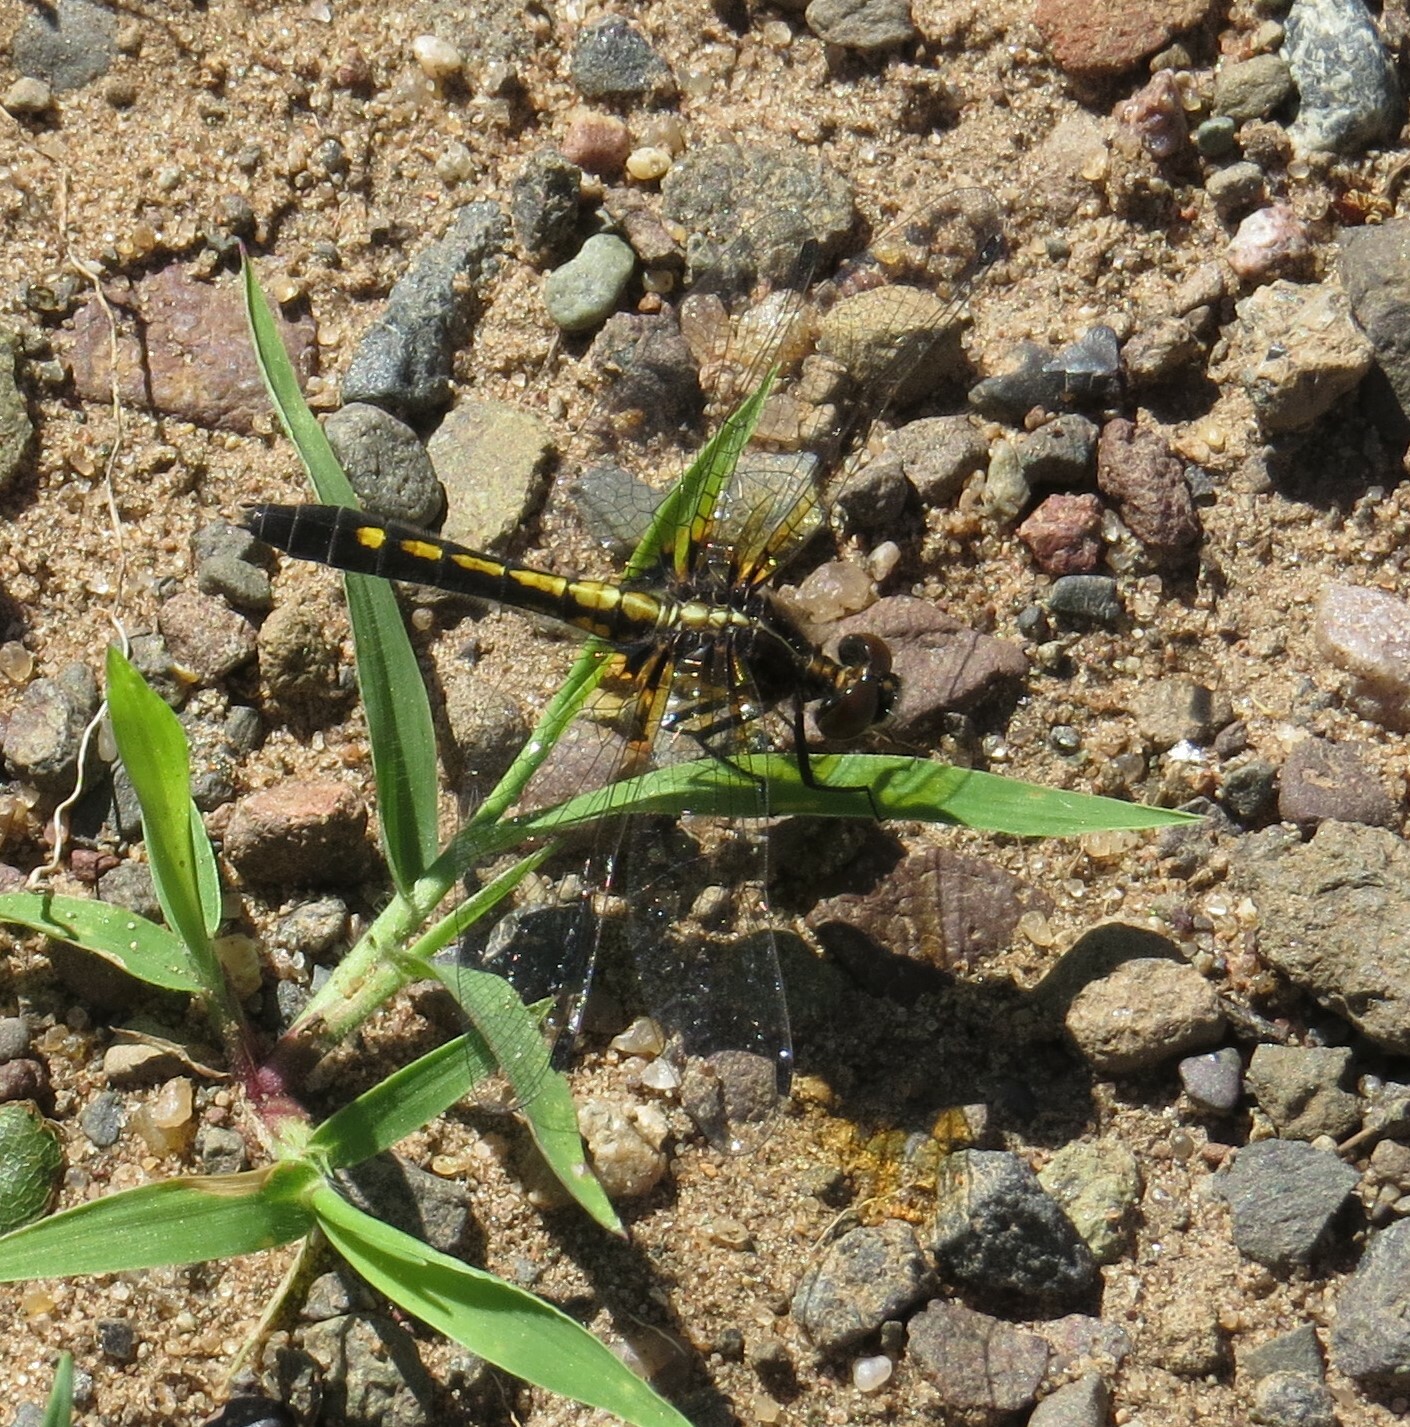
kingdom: Animalia
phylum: Arthropoda
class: Insecta
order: Odonata
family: Libellulidae
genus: Leucorrhinia
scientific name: Leucorrhinia intacta
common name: Dot-tailed whiteface
